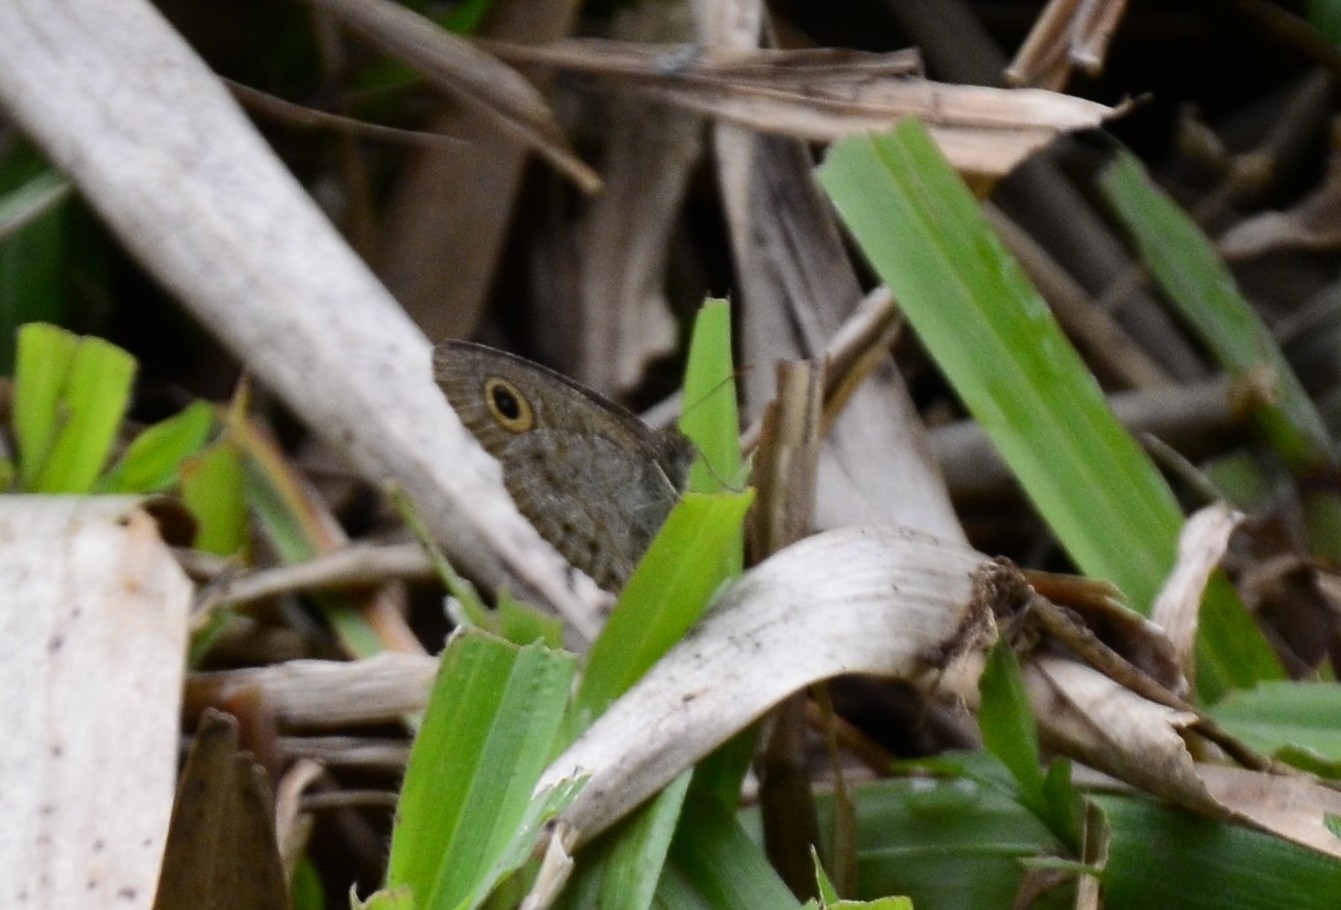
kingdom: Animalia
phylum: Arthropoda
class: Insecta
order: Lepidoptera
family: Nymphalidae
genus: Ypthima
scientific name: Ypthima baldus
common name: Common five-ring
